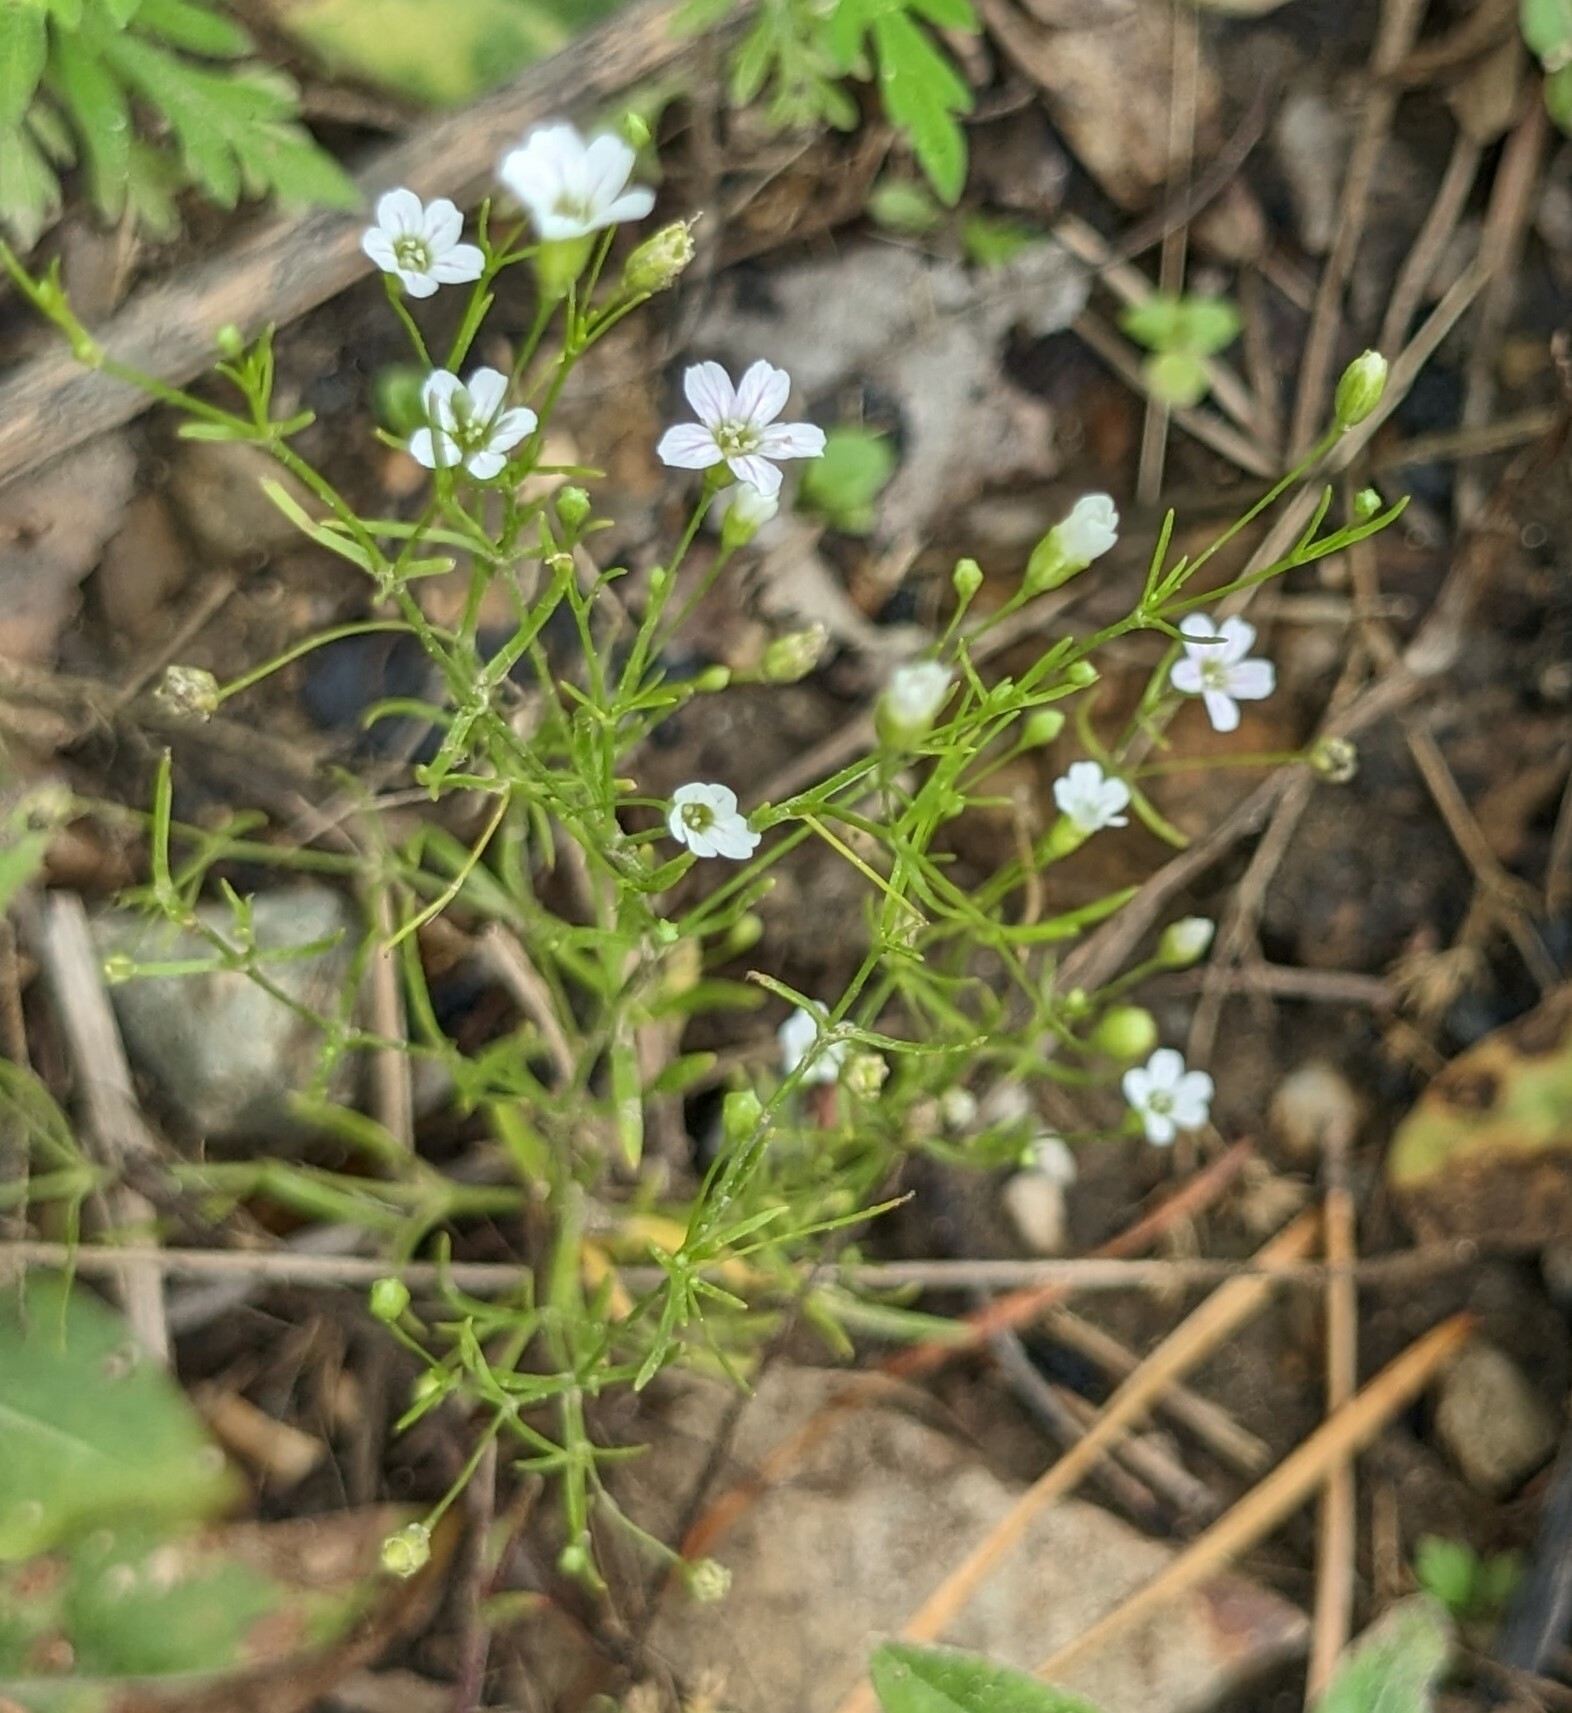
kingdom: Plantae
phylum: Tracheophyta
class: Magnoliopsida
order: Caryophyllales
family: Caryophyllaceae
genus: Psammophiliella
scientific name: Psammophiliella muralis
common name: Cushion baby's-breath
